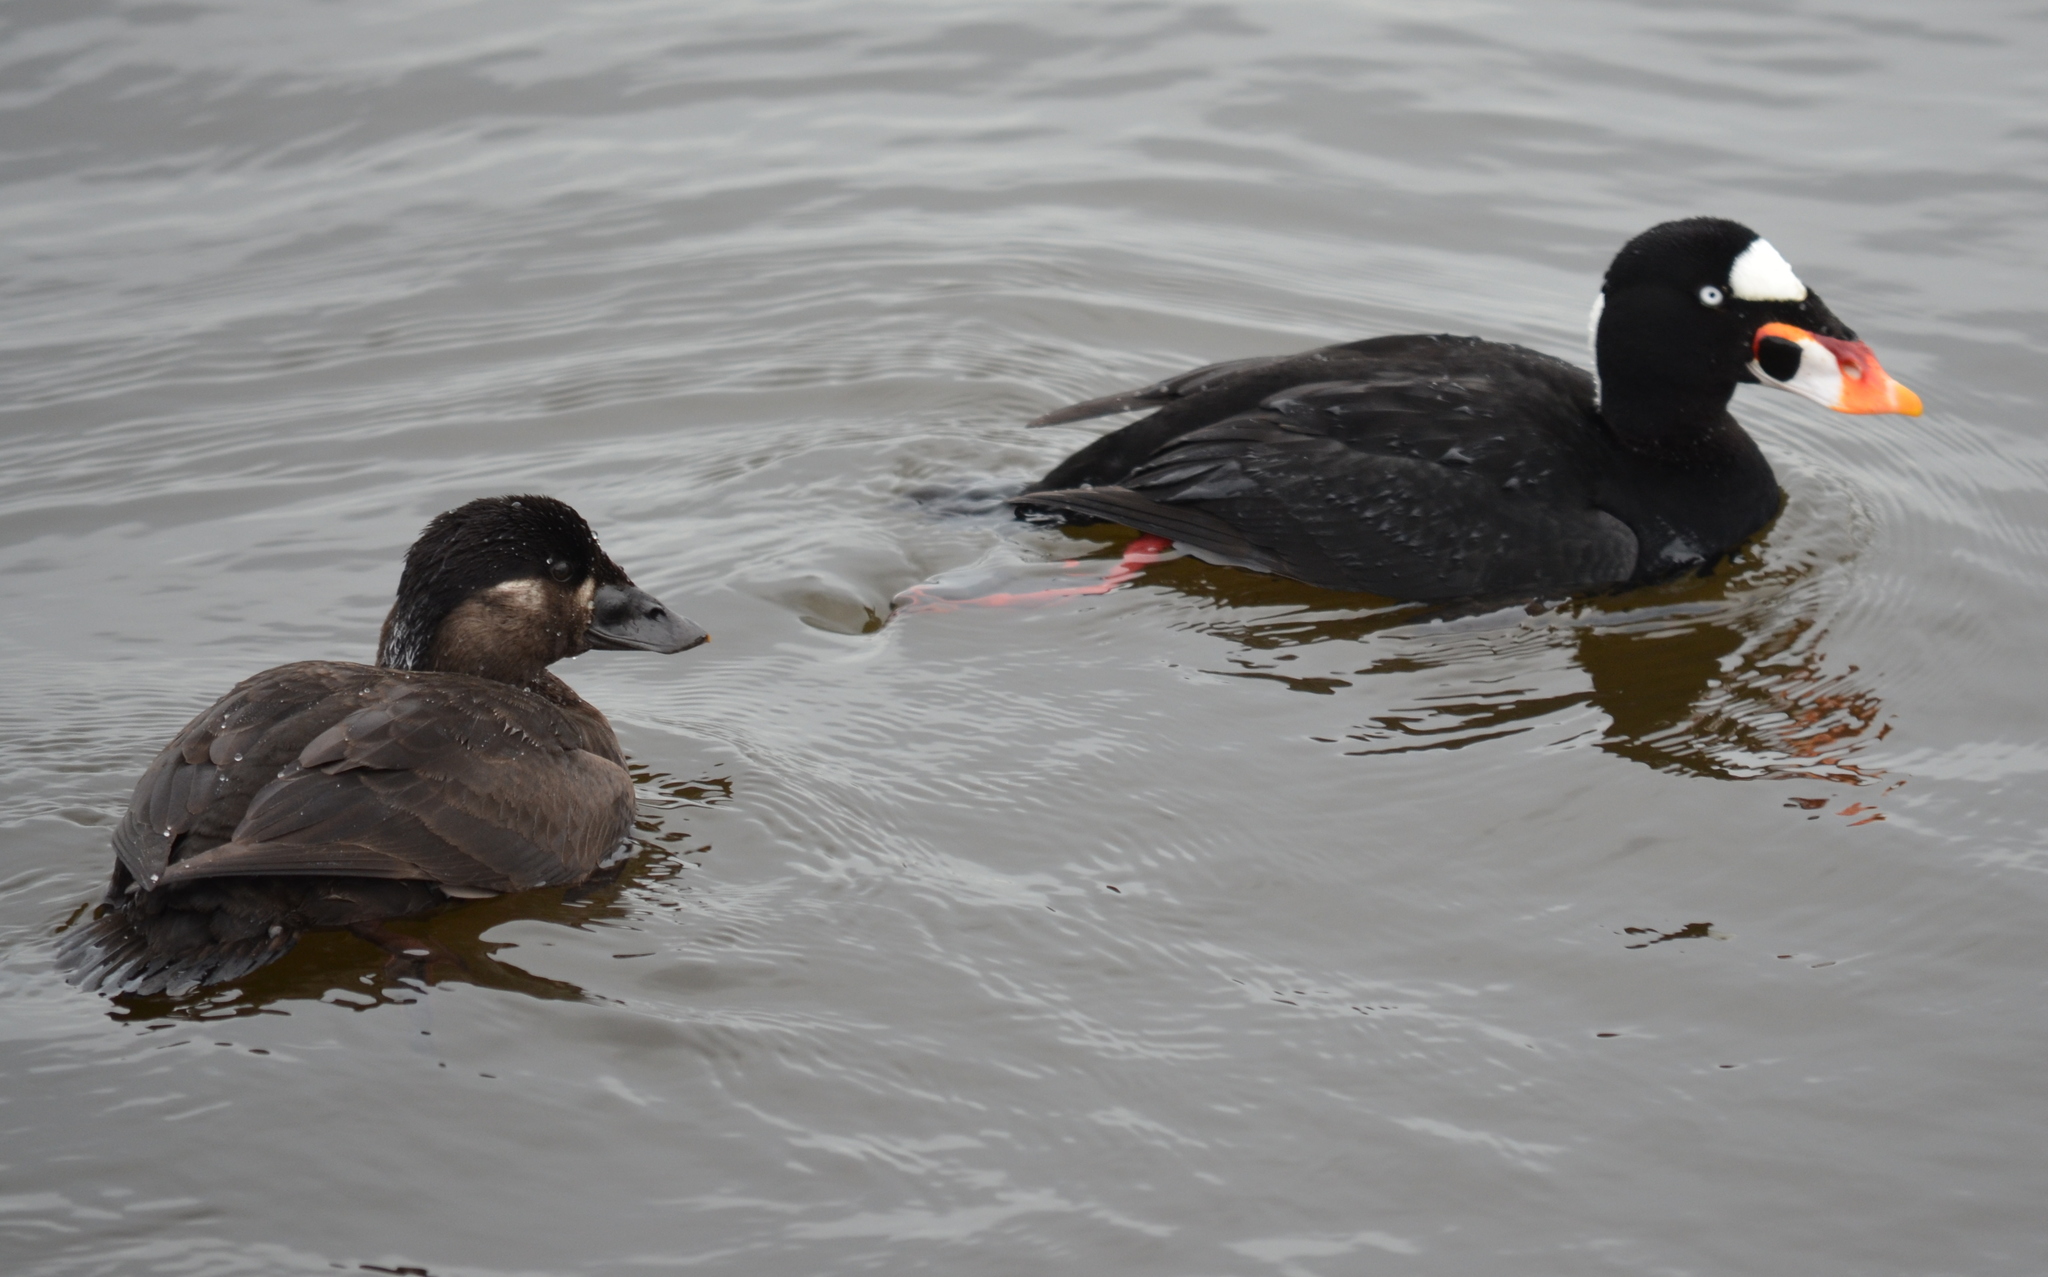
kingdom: Animalia
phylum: Chordata
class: Aves
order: Anseriformes
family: Anatidae
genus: Melanitta
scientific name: Melanitta perspicillata
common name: Surf scoter
